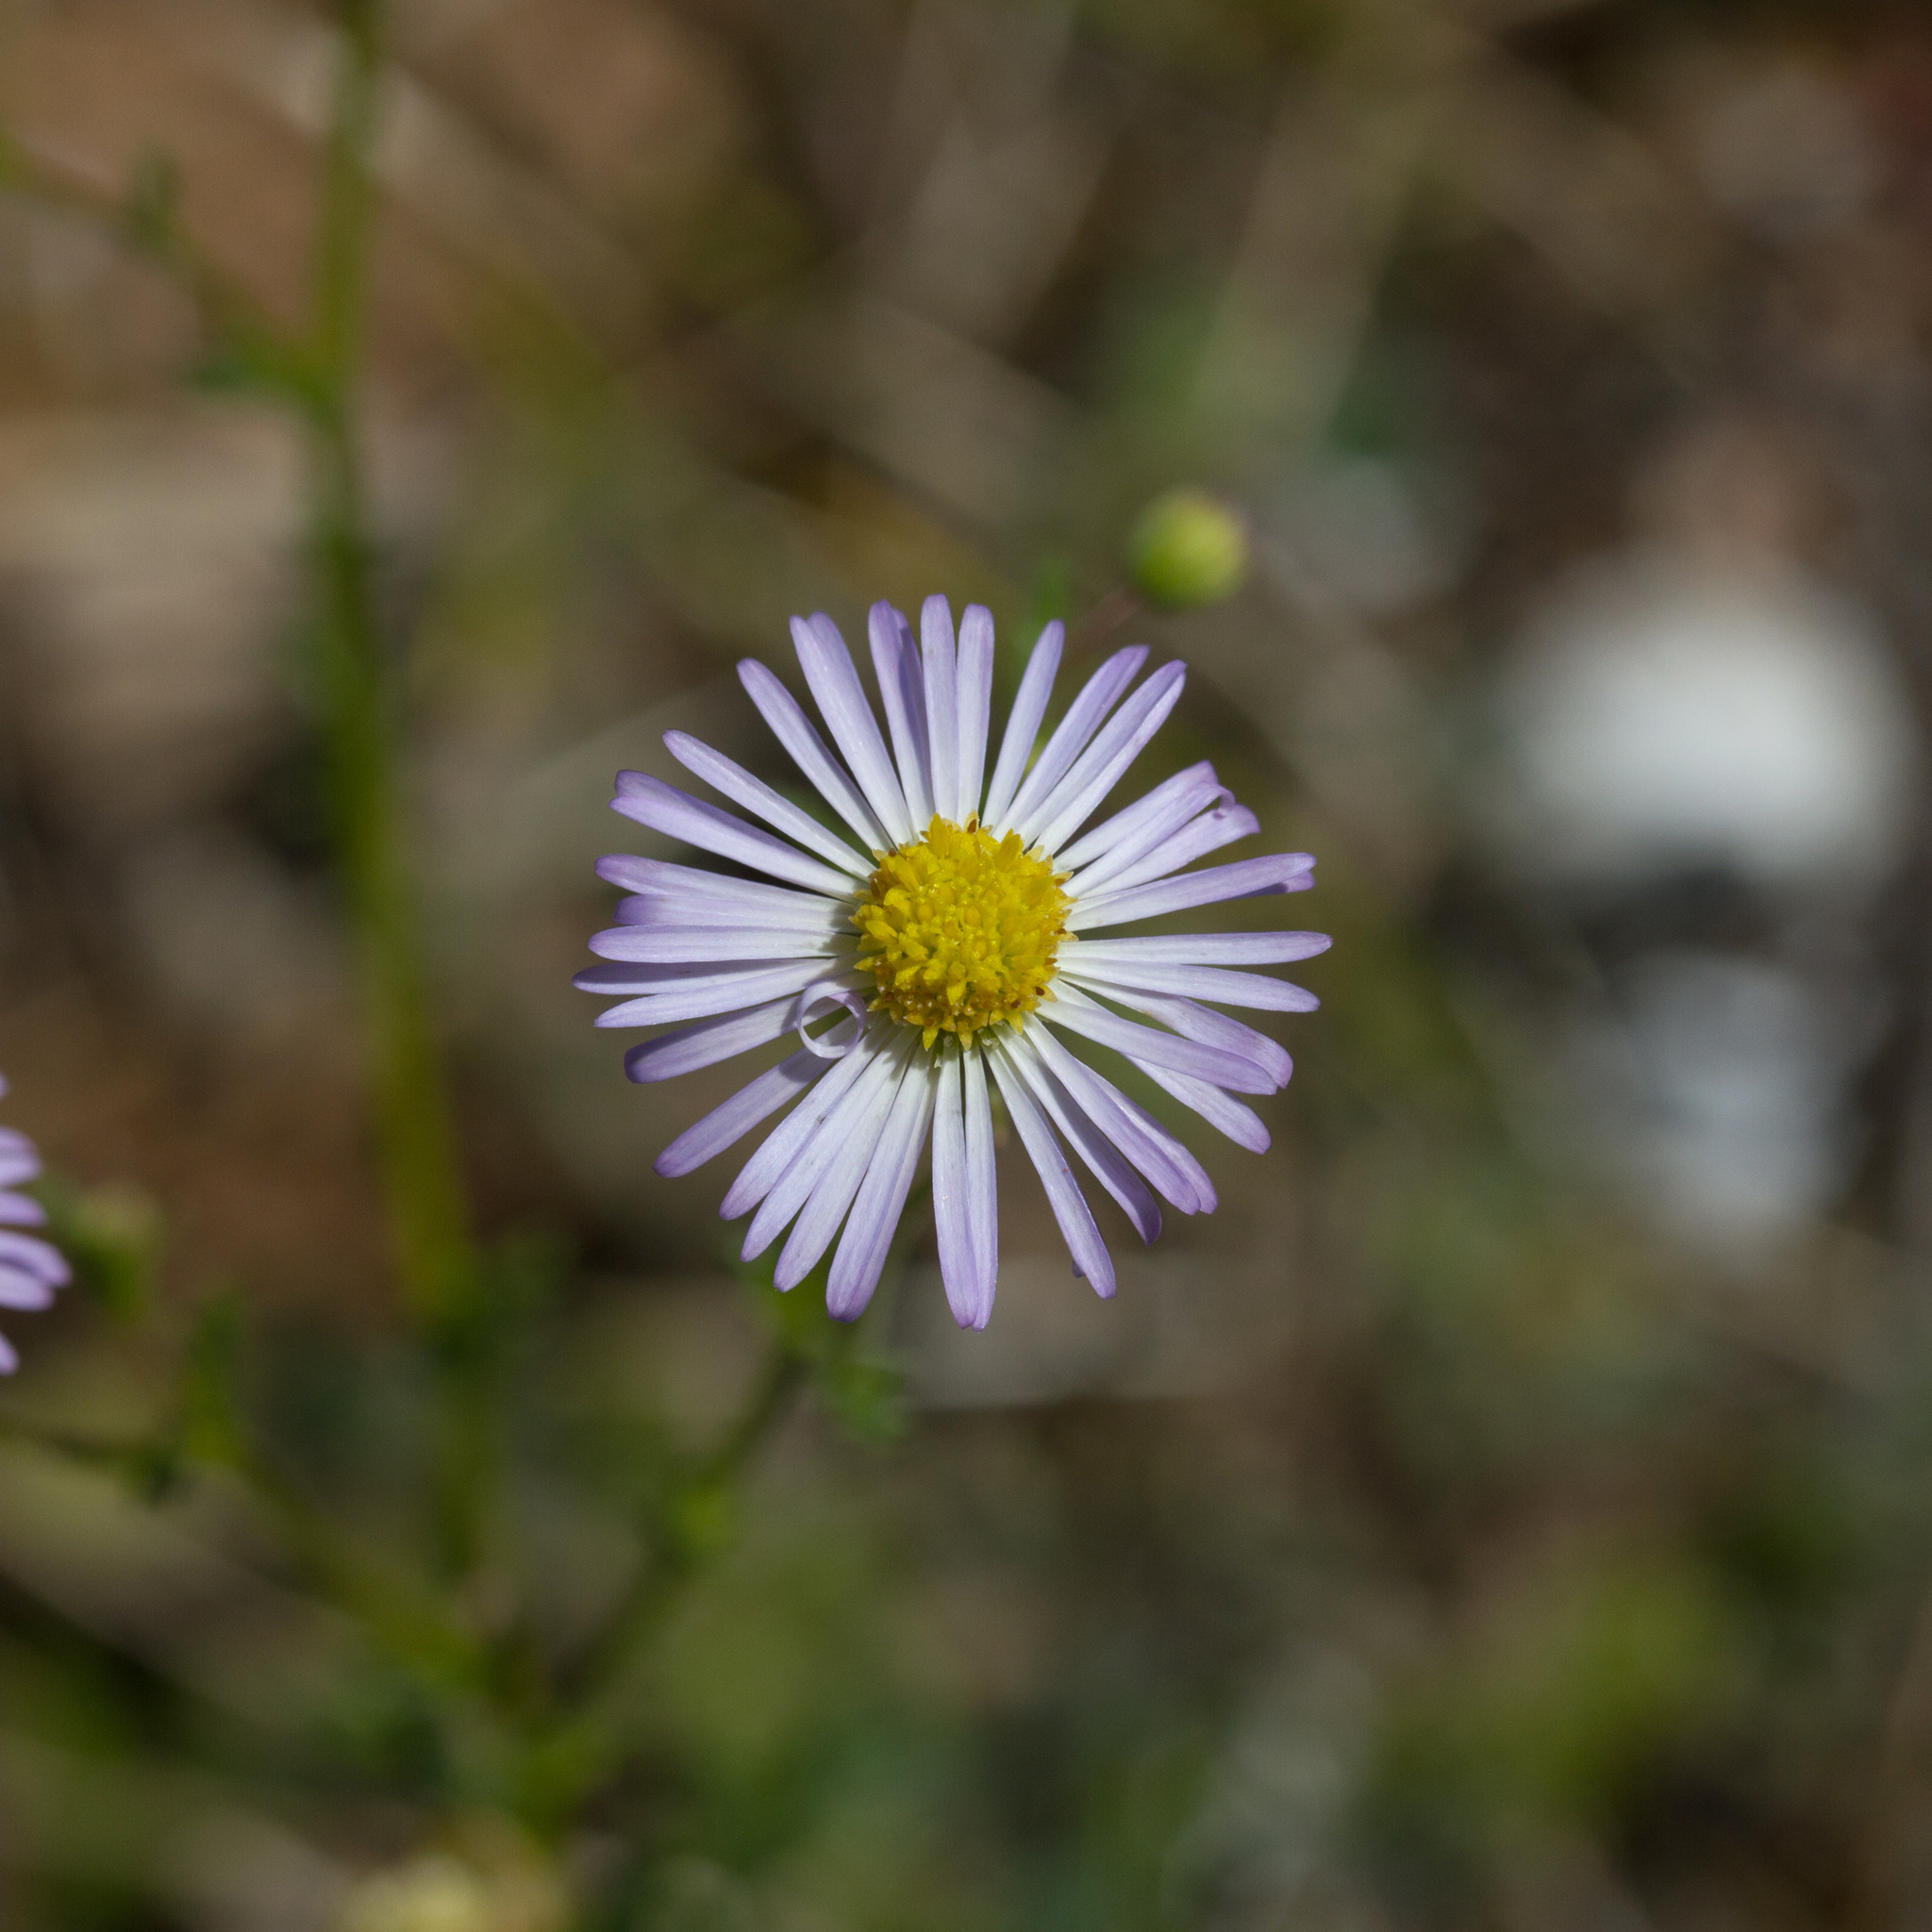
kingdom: Plantae
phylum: Tracheophyta
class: Magnoliopsida
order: Asterales
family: Asteraceae
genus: Brachyscome
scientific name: Brachyscome ciliaris
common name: Variable daisy
